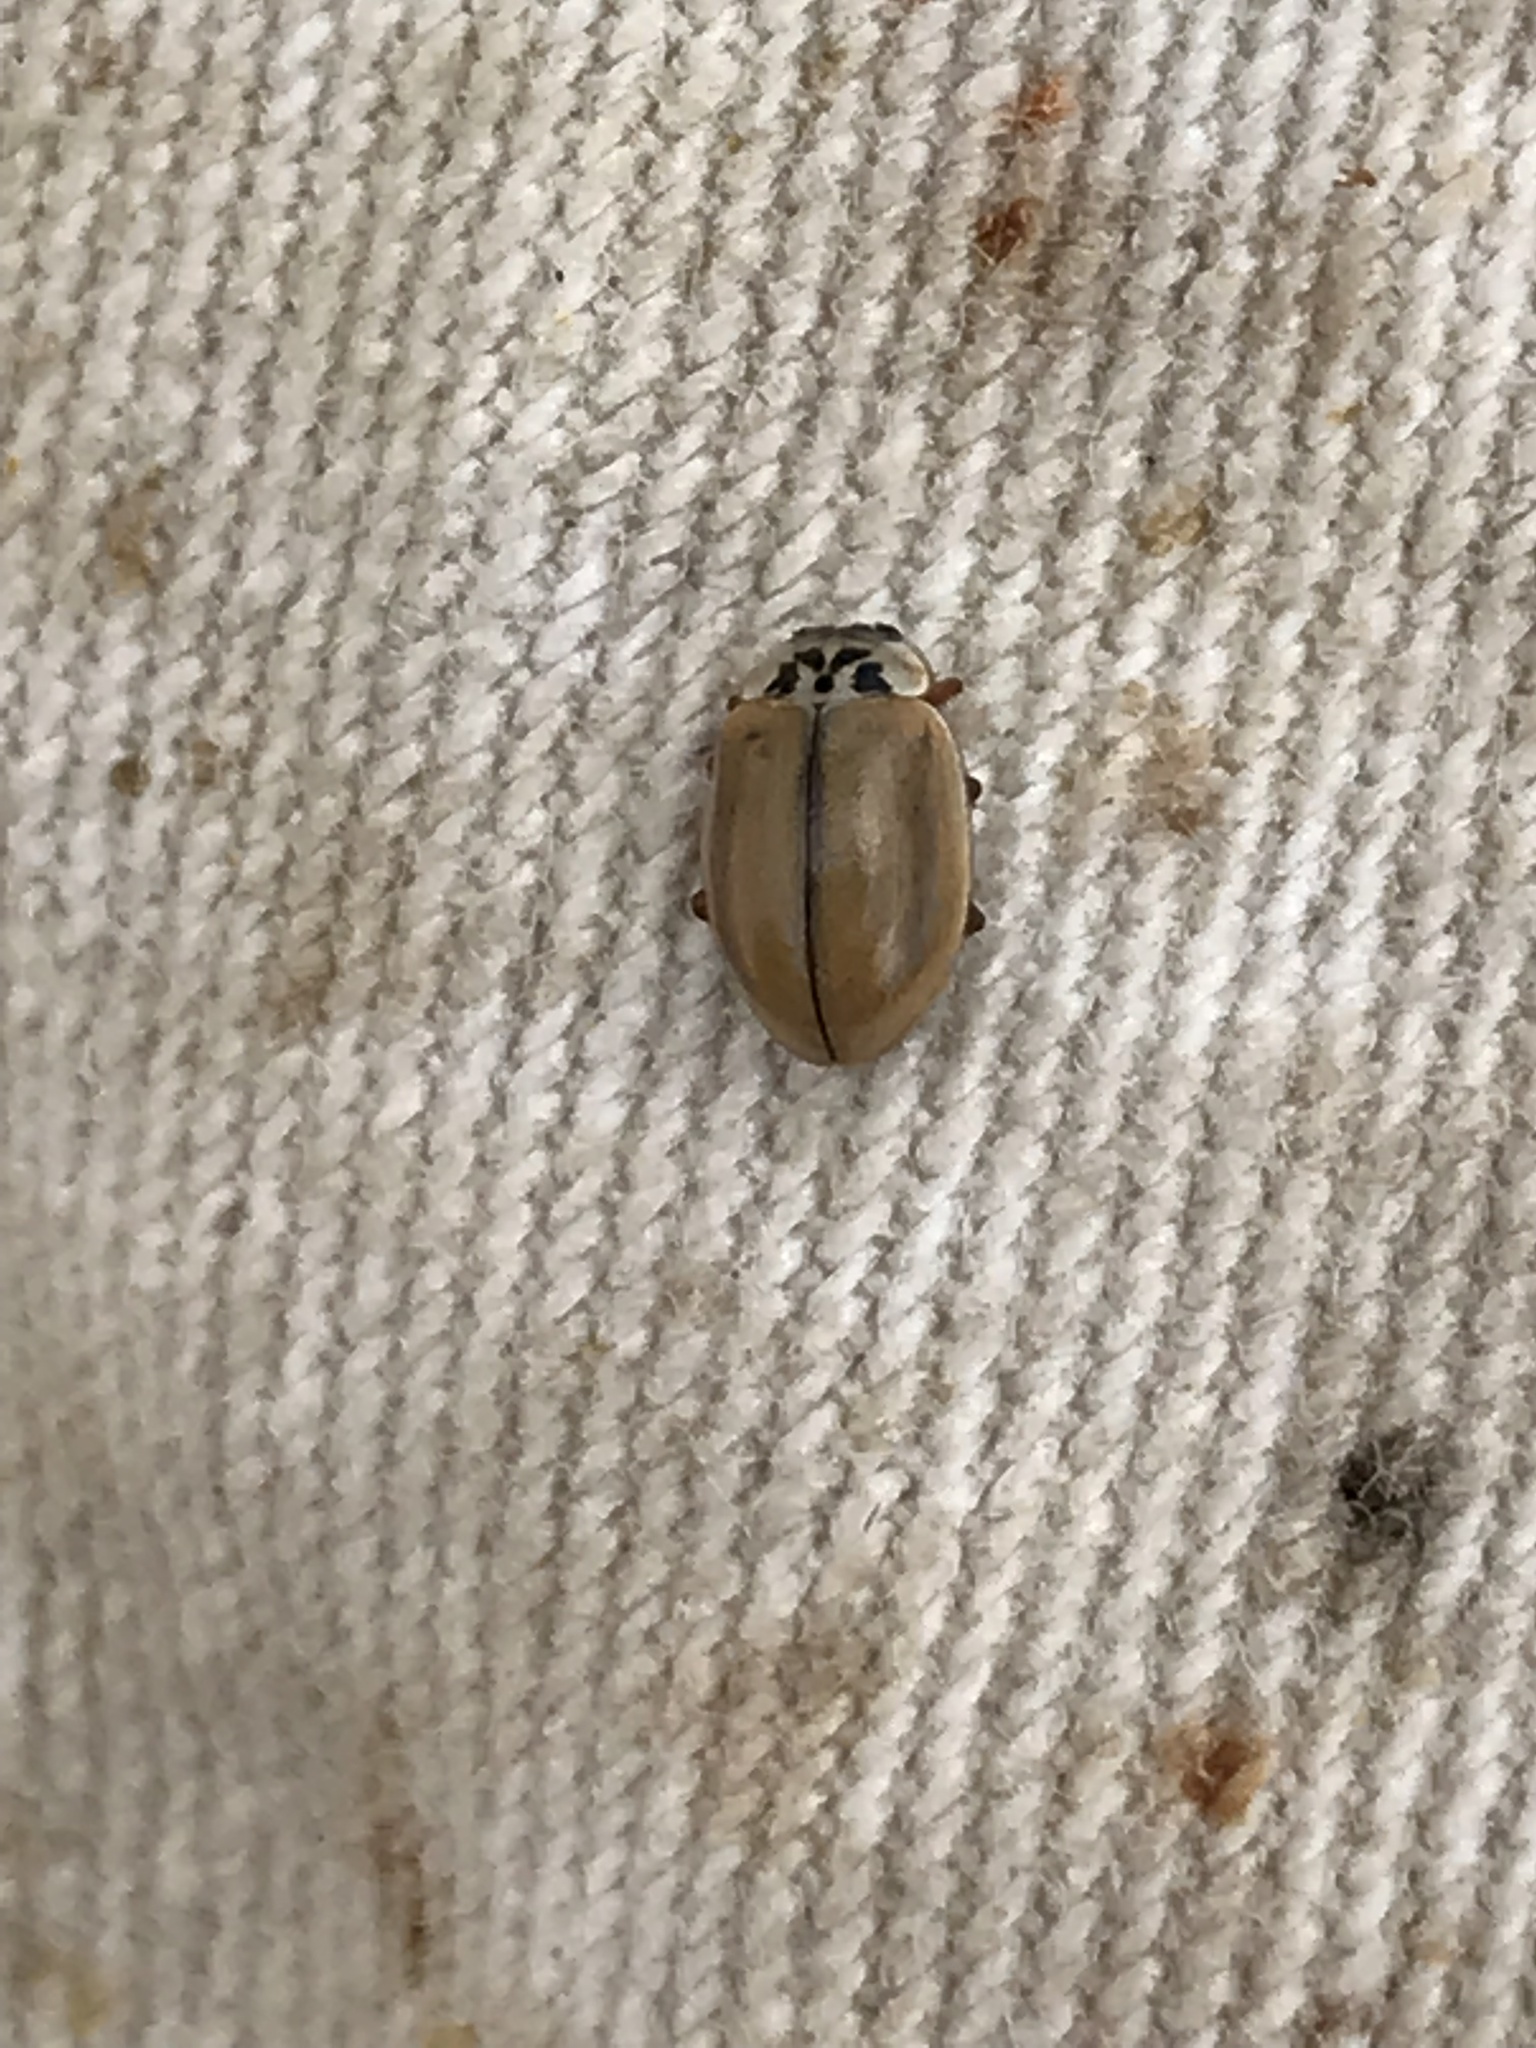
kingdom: Animalia
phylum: Arthropoda
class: Insecta
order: Coleoptera
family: Coccinellidae
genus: Aphidecta
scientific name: Aphidecta obliterata
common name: Larch ladybird
